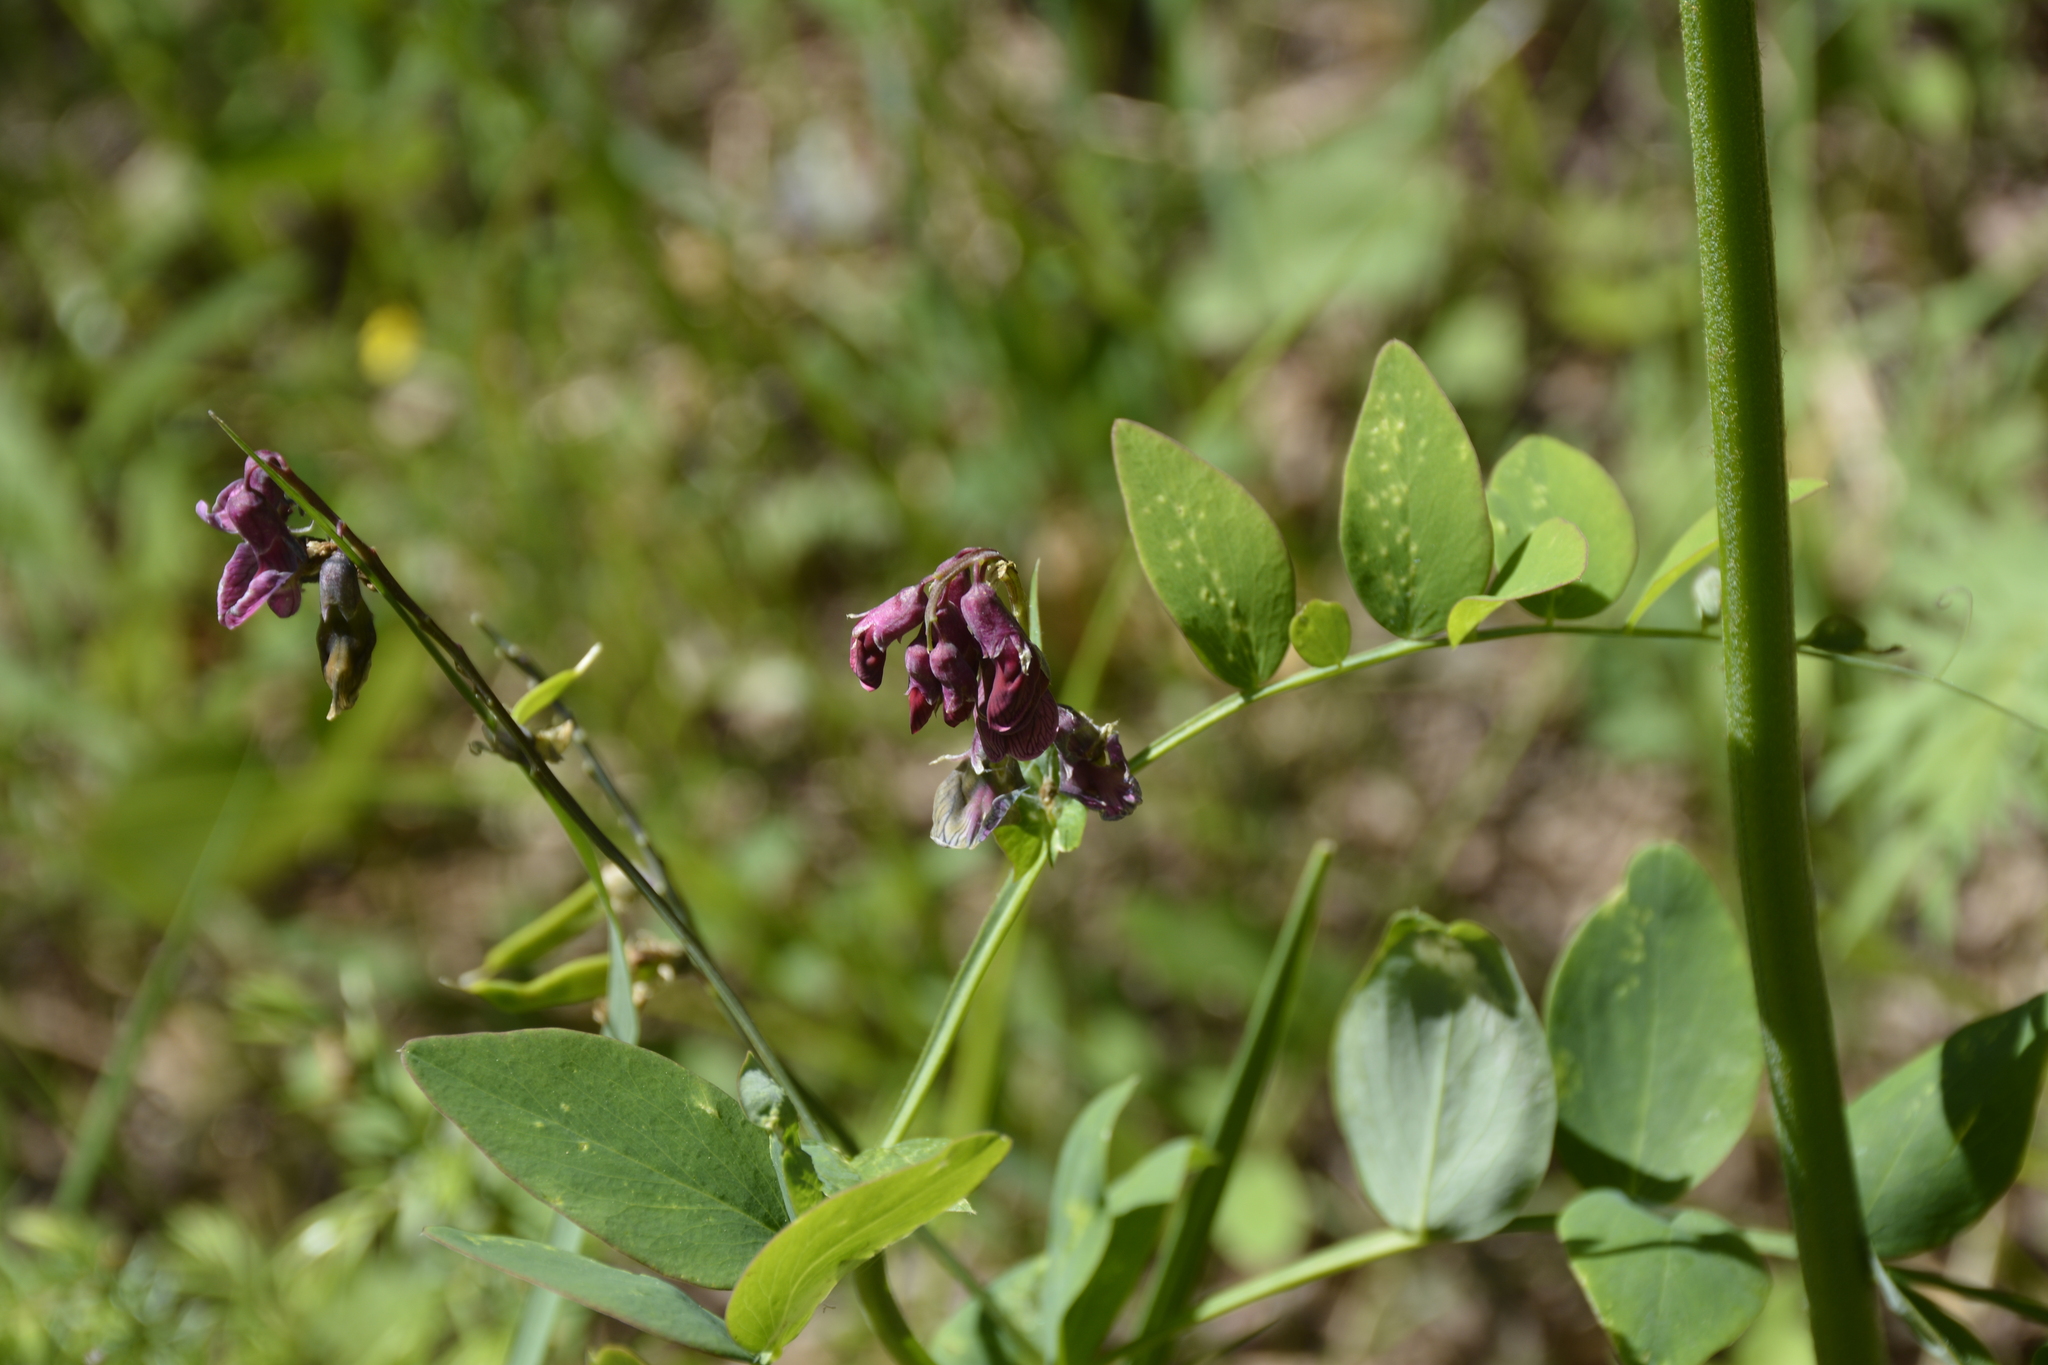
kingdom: Plantae
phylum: Tracheophyta
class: Magnoliopsida
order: Fabales
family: Fabaceae
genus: Lathyrus
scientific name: Lathyrus pisiformis
